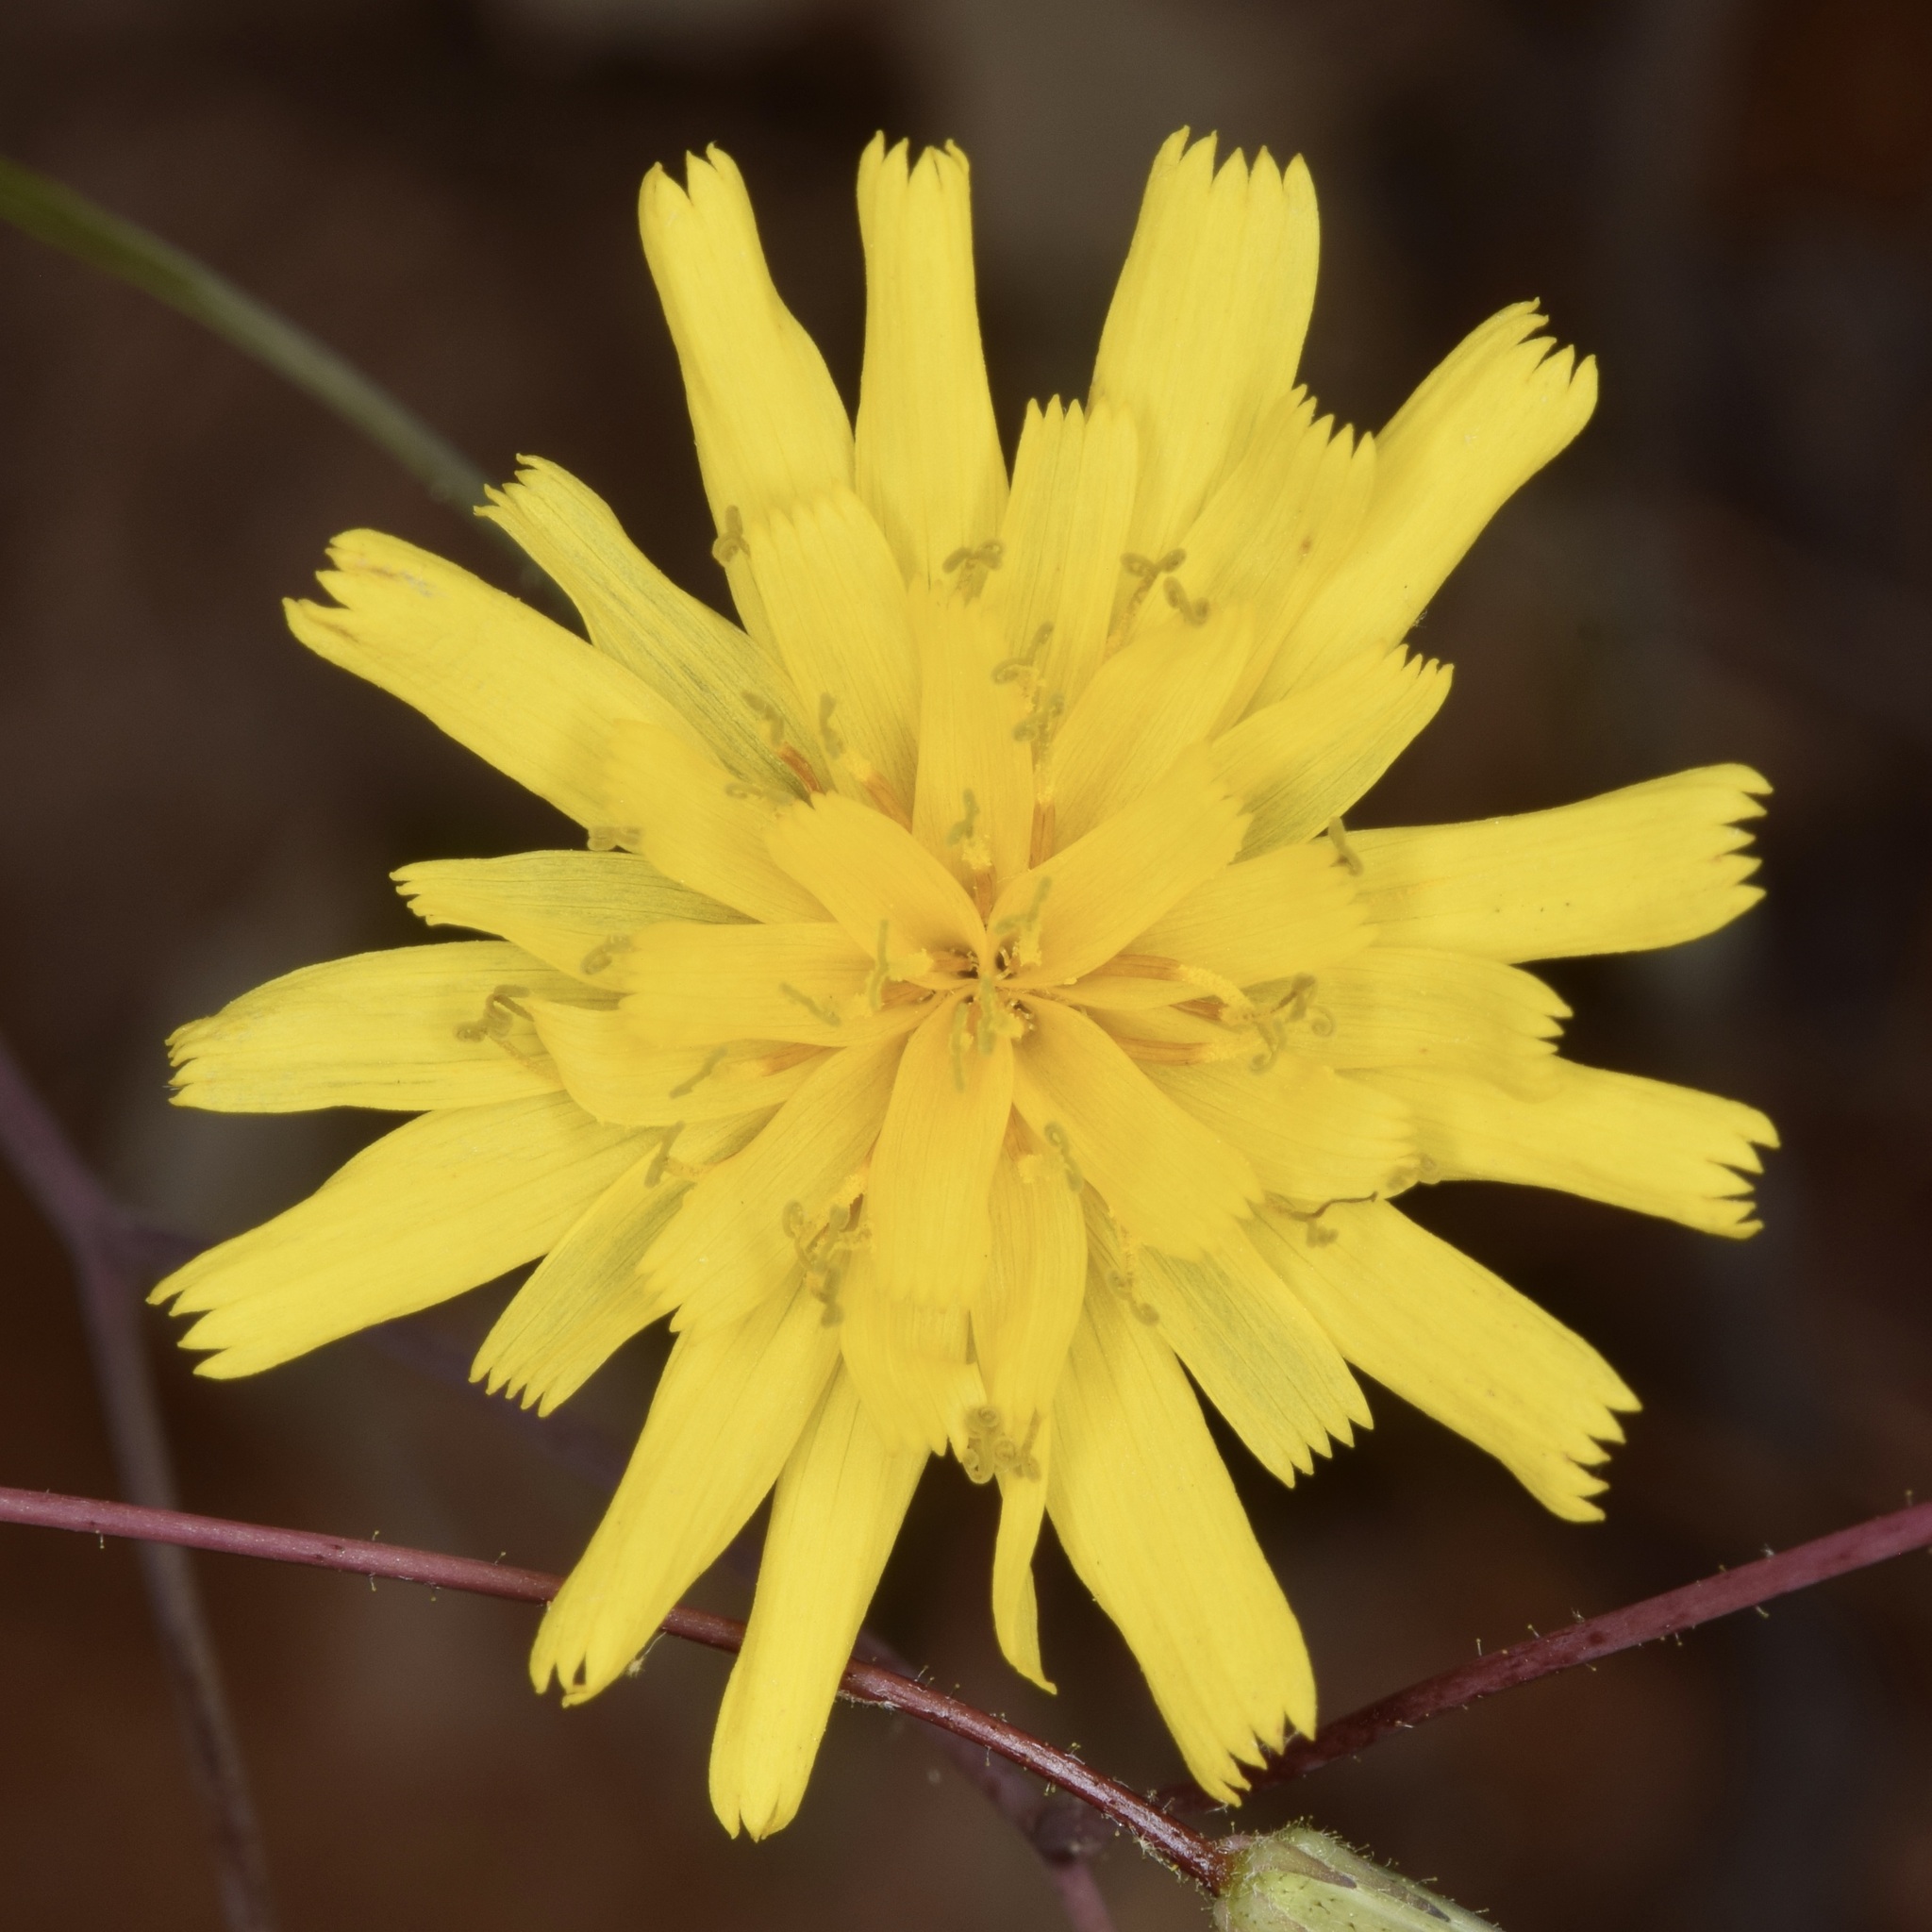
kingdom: Plantae
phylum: Tracheophyta
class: Magnoliopsida
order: Asterales
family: Asteraceae
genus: Hieracium
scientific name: Hieracium venosum
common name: Rattlesnake hawkweed
